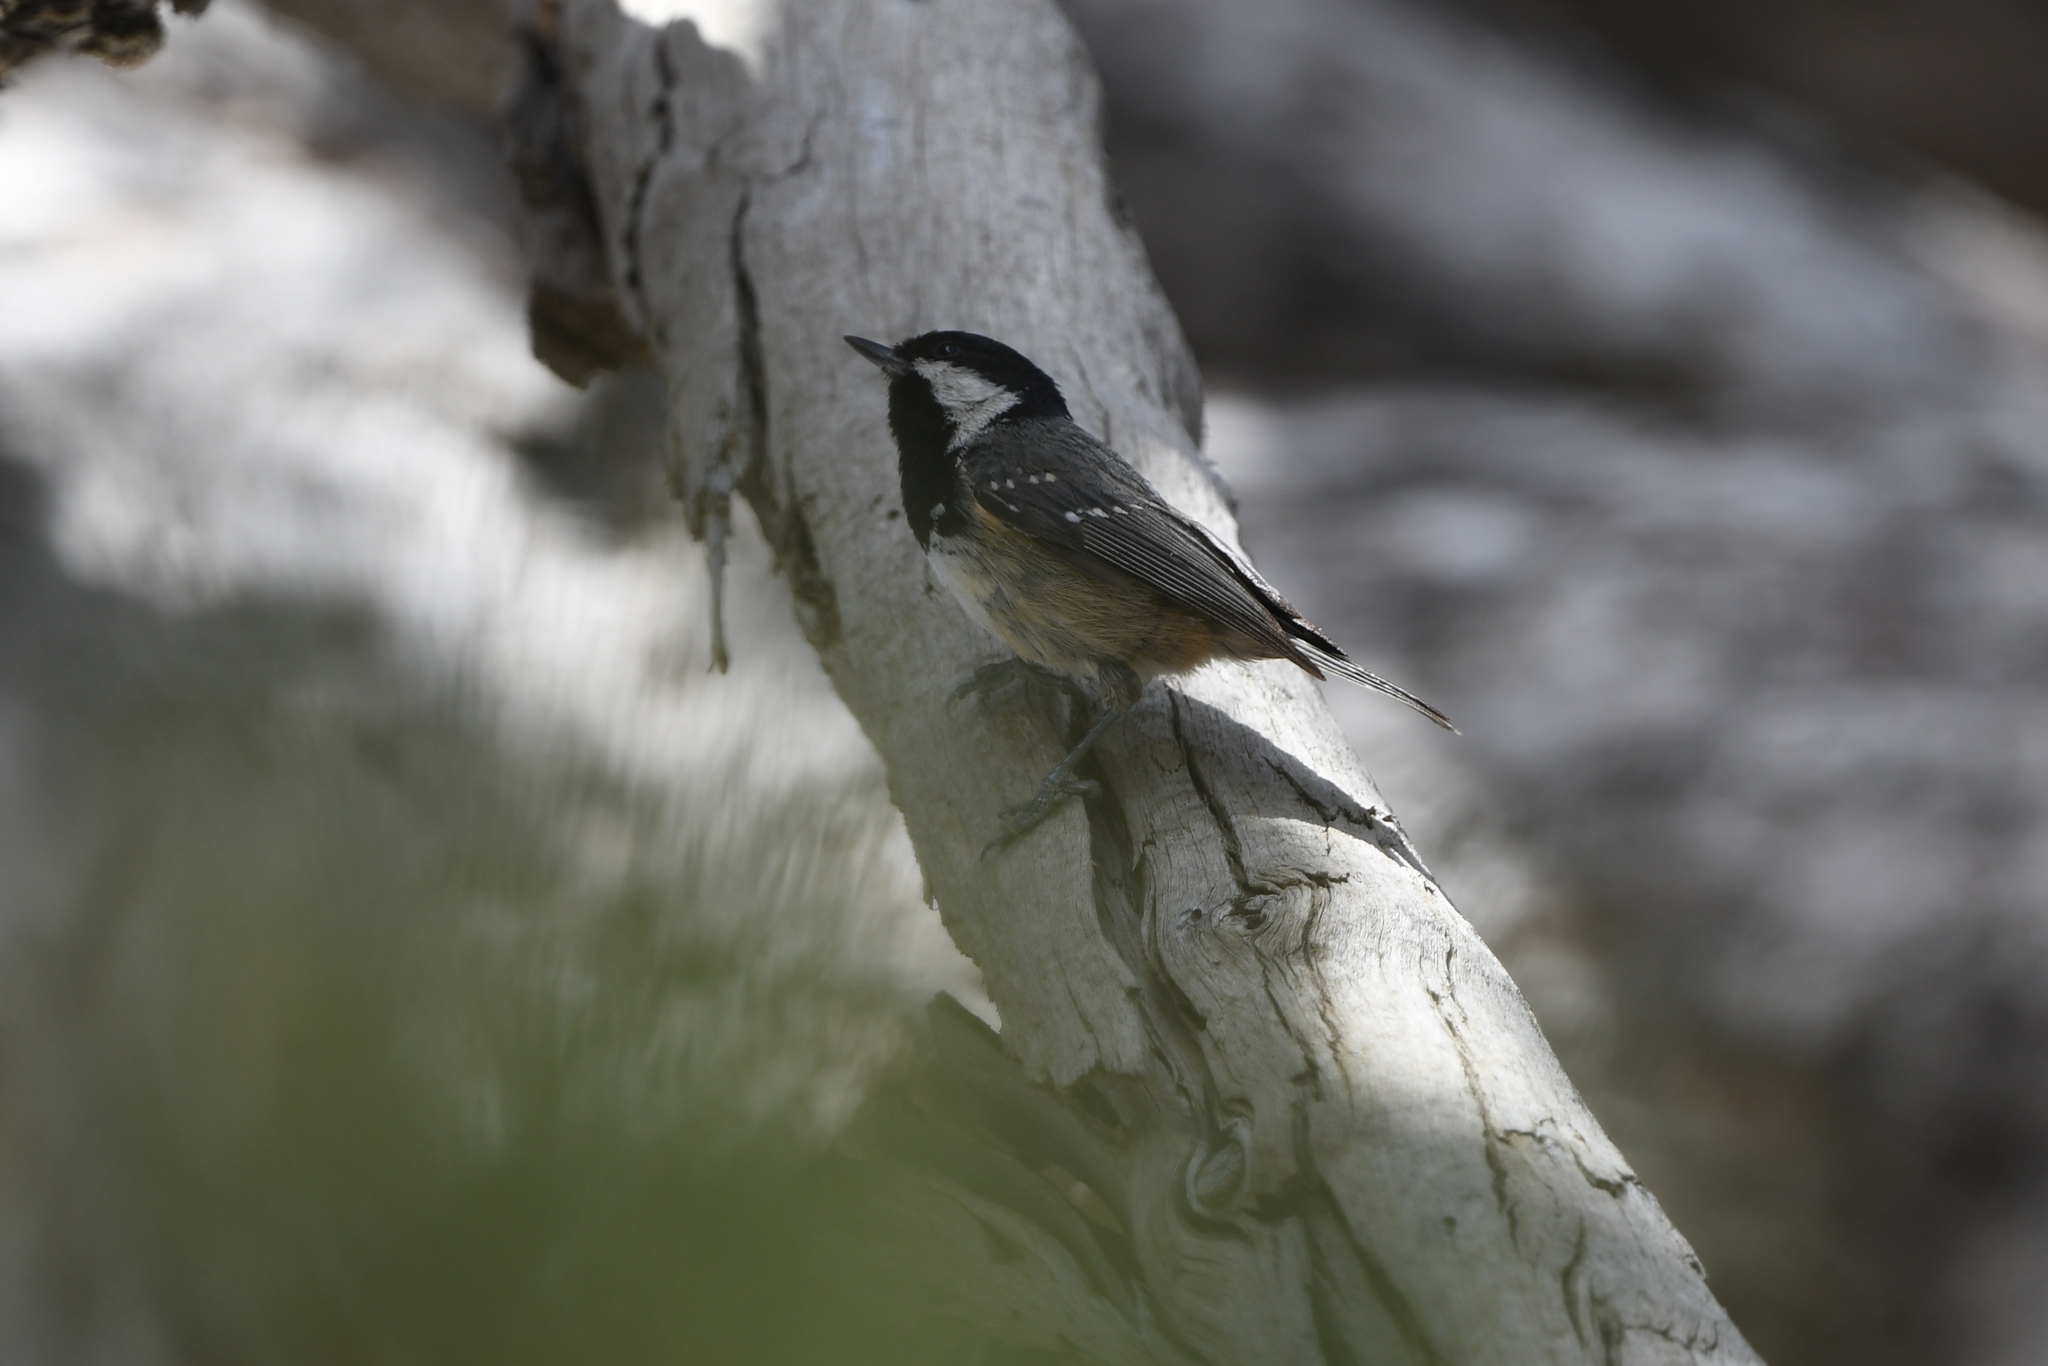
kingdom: Animalia
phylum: Chordata
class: Aves
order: Passeriformes
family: Paridae
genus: Periparus
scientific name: Periparus ater
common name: Coal tit
